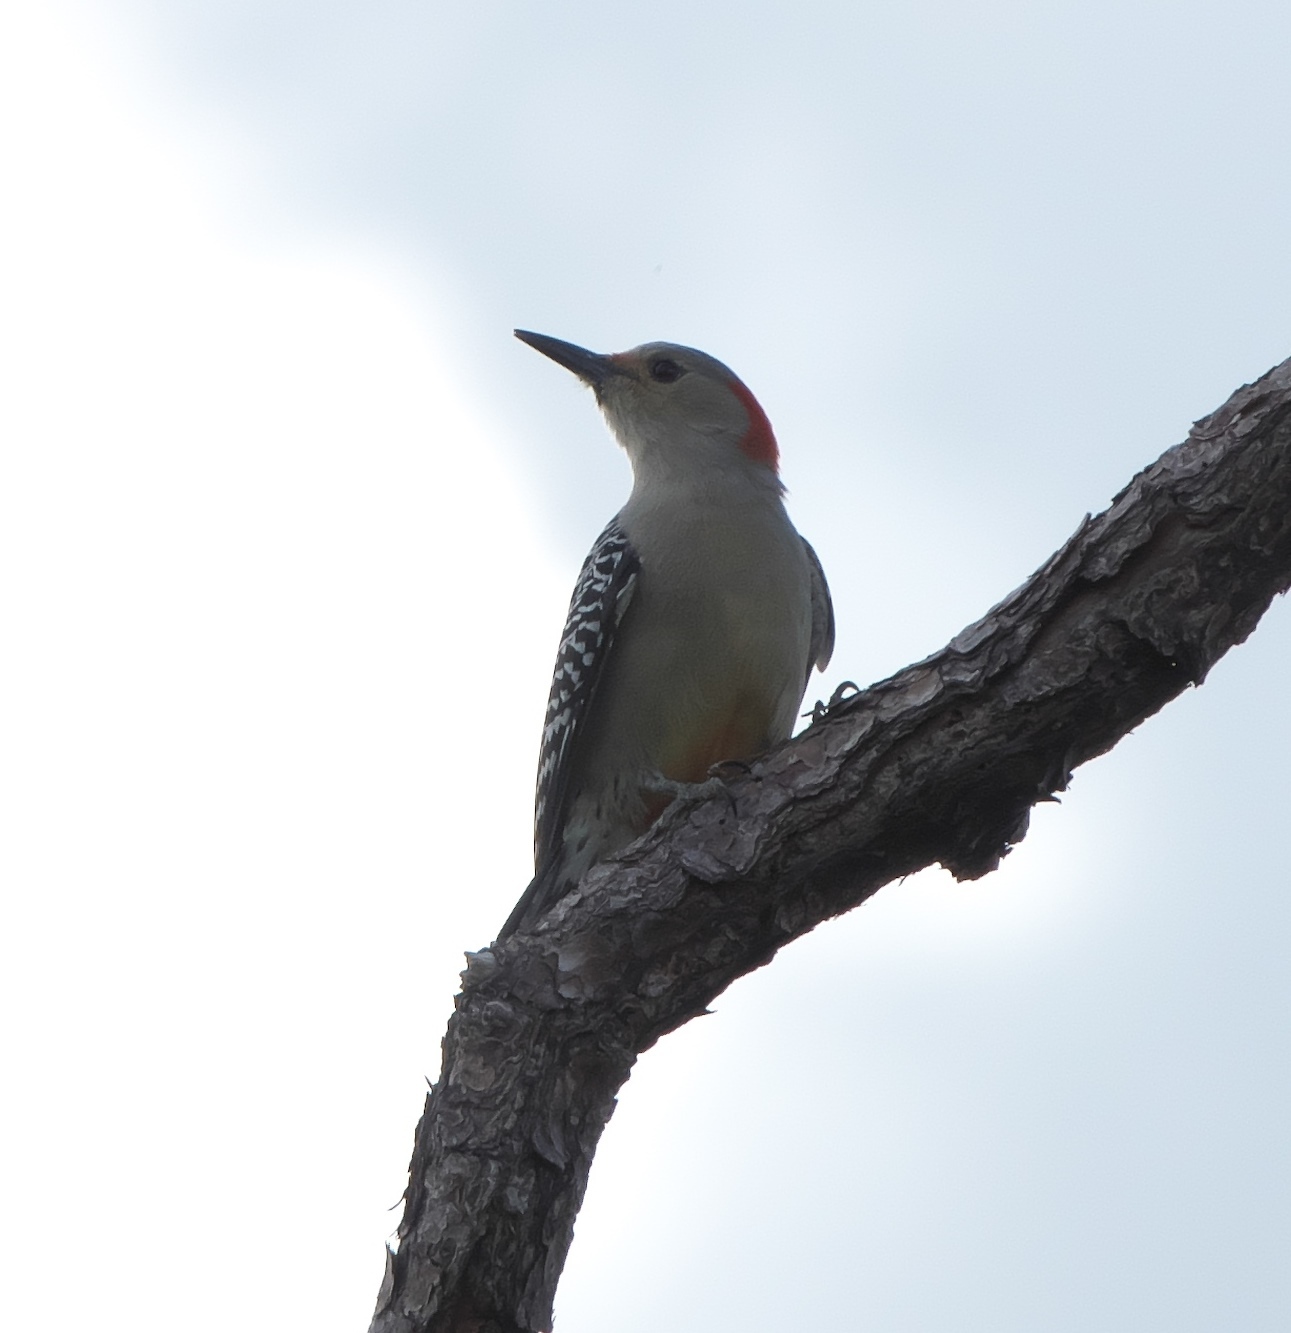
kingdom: Animalia
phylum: Chordata
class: Aves
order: Piciformes
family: Picidae
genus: Melanerpes
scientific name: Melanerpes carolinus
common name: Red-bellied woodpecker
